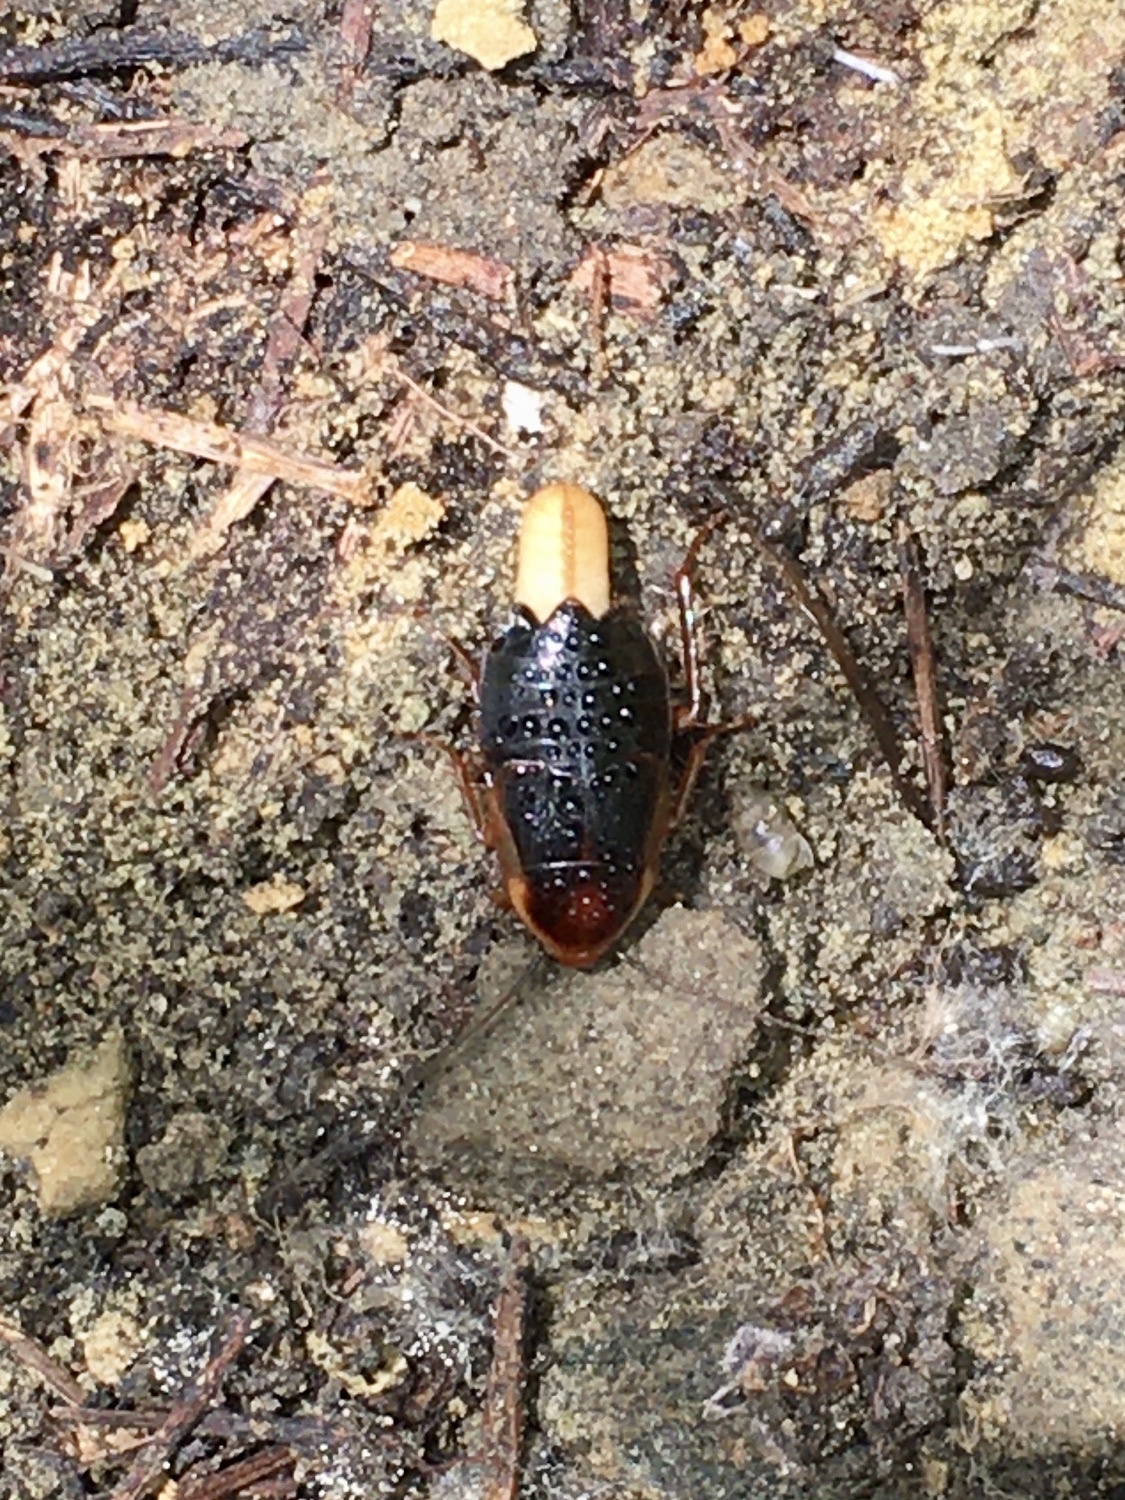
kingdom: Animalia
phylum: Arthropoda
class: Insecta
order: Blattodea
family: Ectobiidae
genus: Parcoblatta
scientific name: Parcoblatta pennsylvanica
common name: Pennsylvanian wood cockroach
